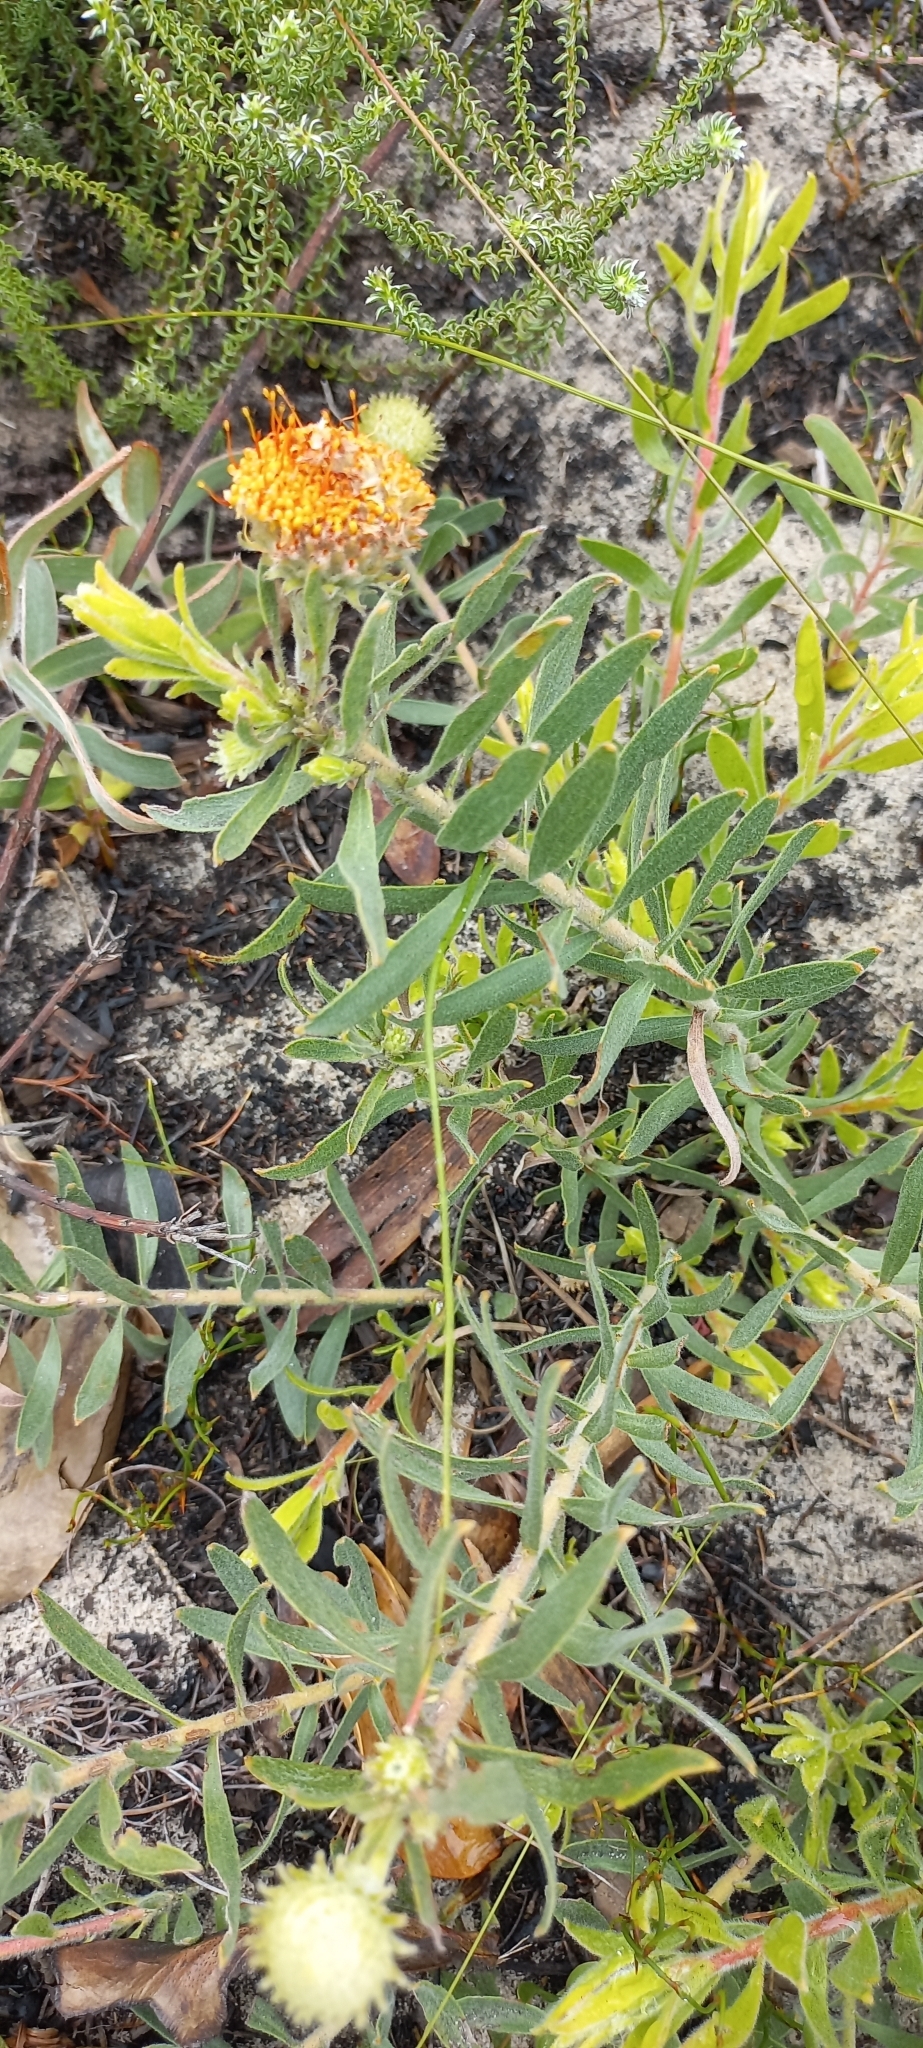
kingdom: Plantae
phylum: Tracheophyta
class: Magnoliopsida
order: Proteales
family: Proteaceae
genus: Leucospermum
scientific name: Leucospermum prostratum
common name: Yellow-trailing pincushion
